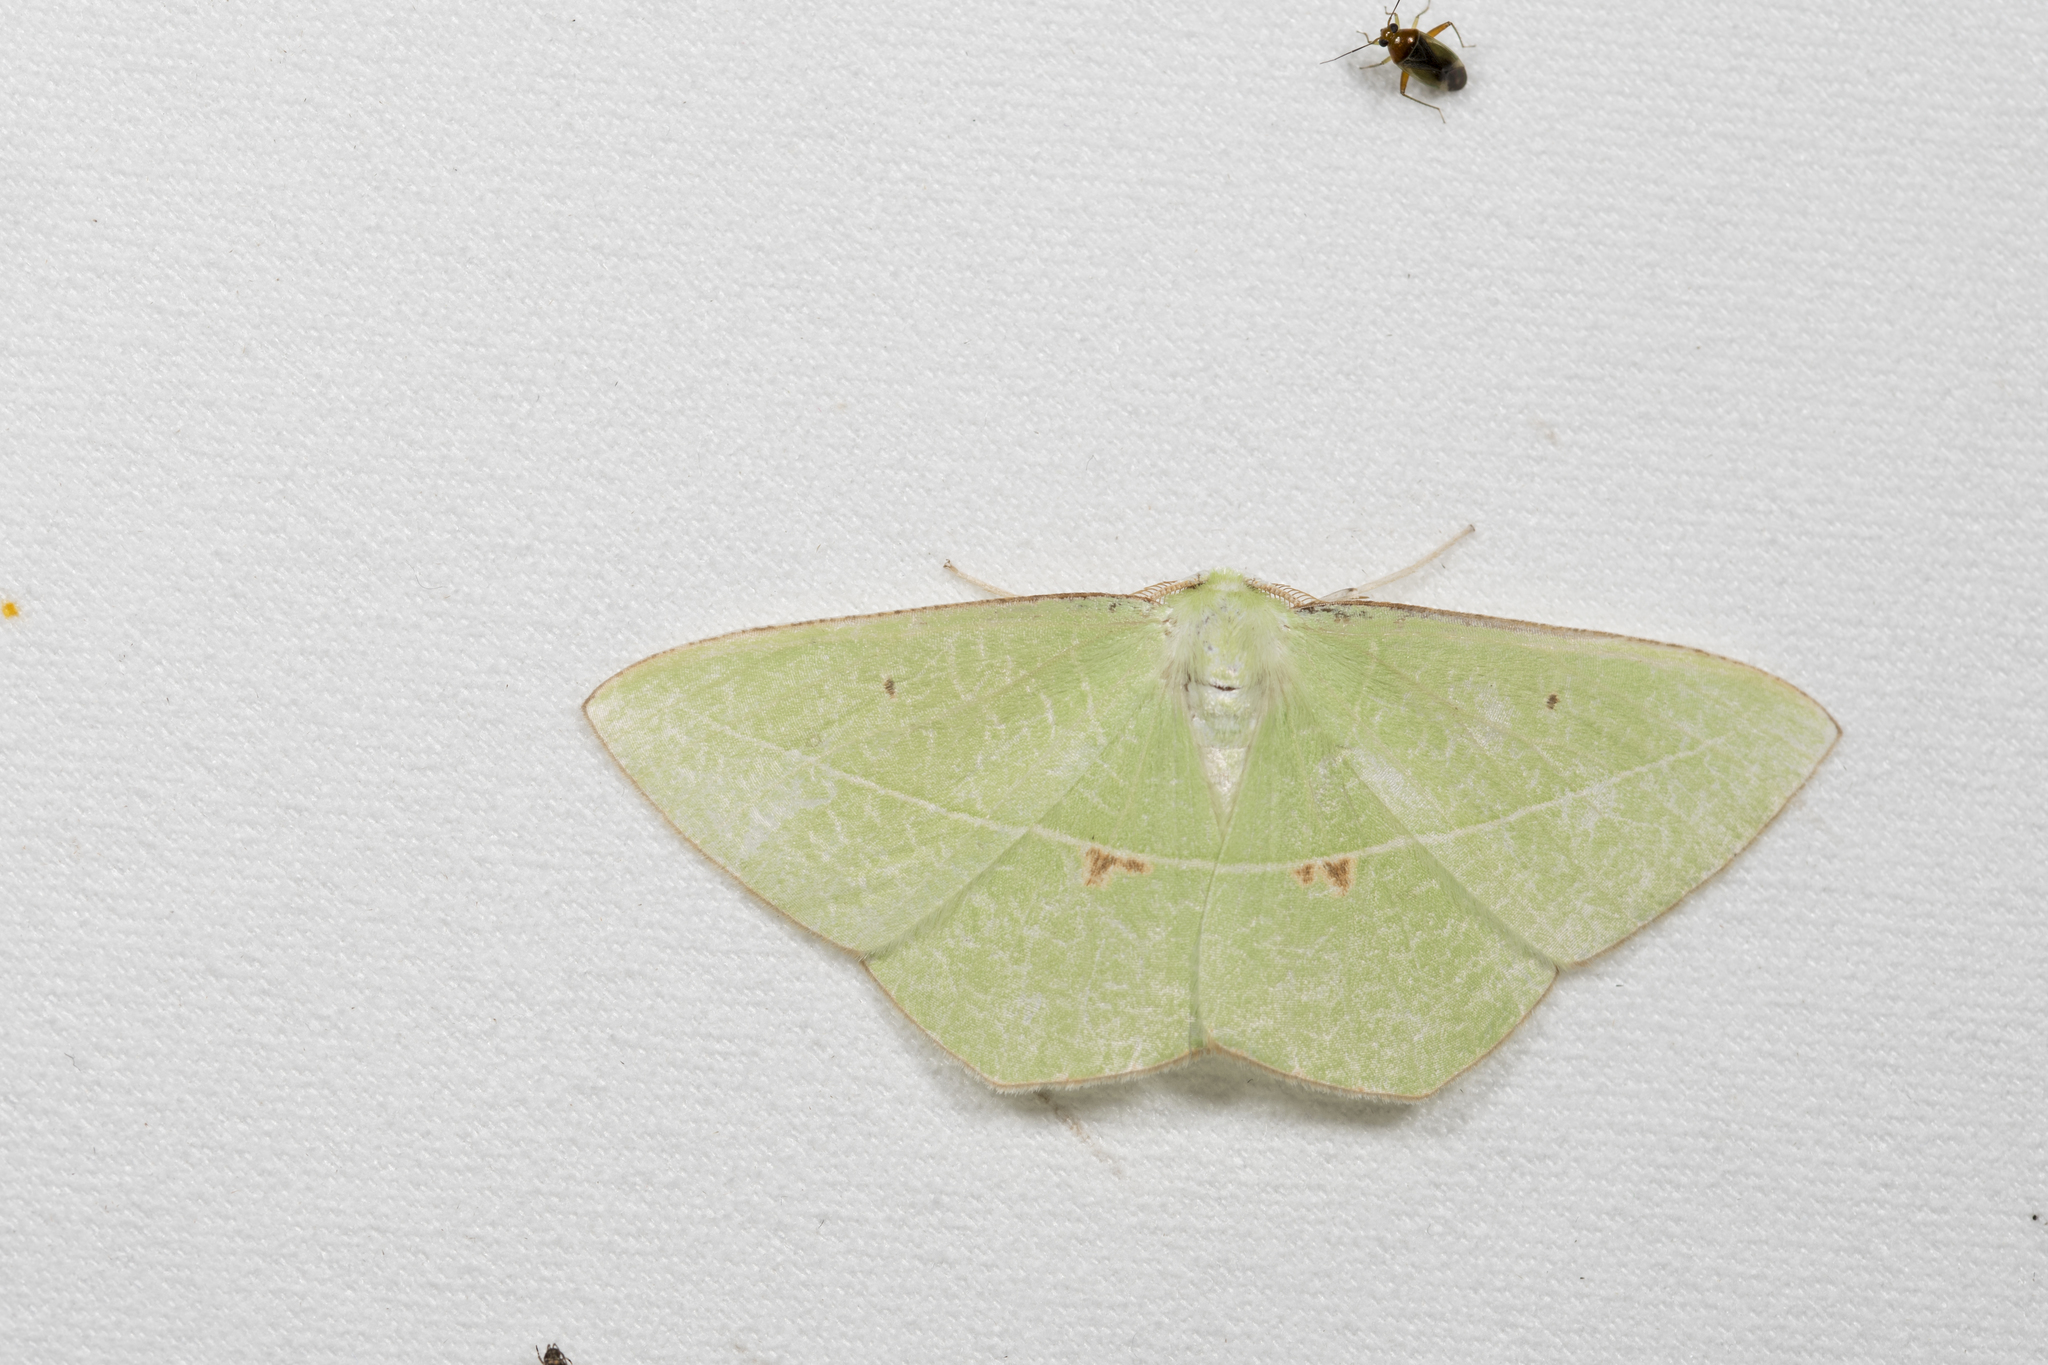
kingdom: Animalia
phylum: Arthropoda
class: Insecta
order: Lepidoptera
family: Geometridae
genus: Tanaoctenia
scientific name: Tanaoctenia haliaria
